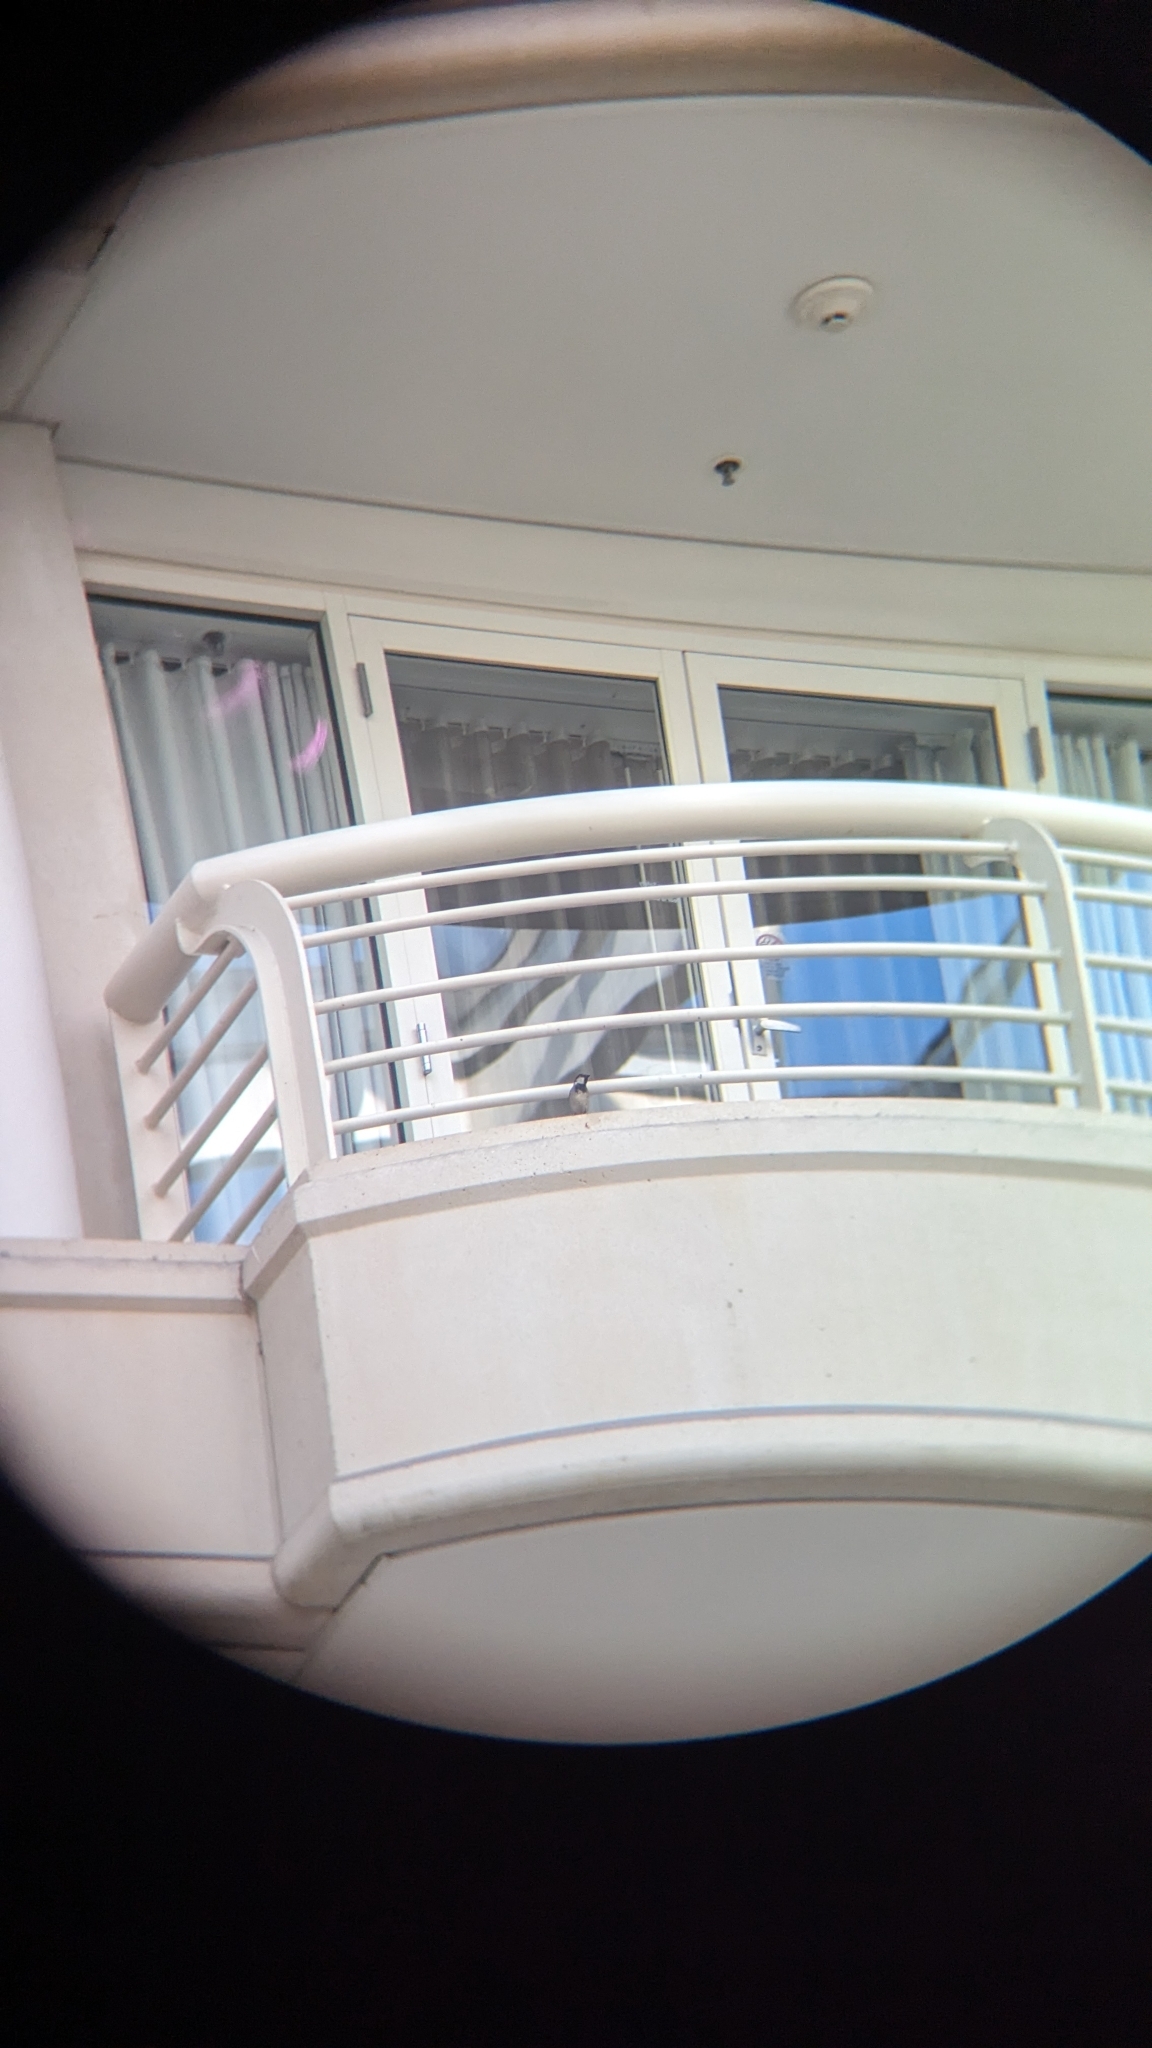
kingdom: Animalia
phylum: Chordata
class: Aves
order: Passeriformes
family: Passeridae
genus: Passer
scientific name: Passer domesticus
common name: House sparrow
